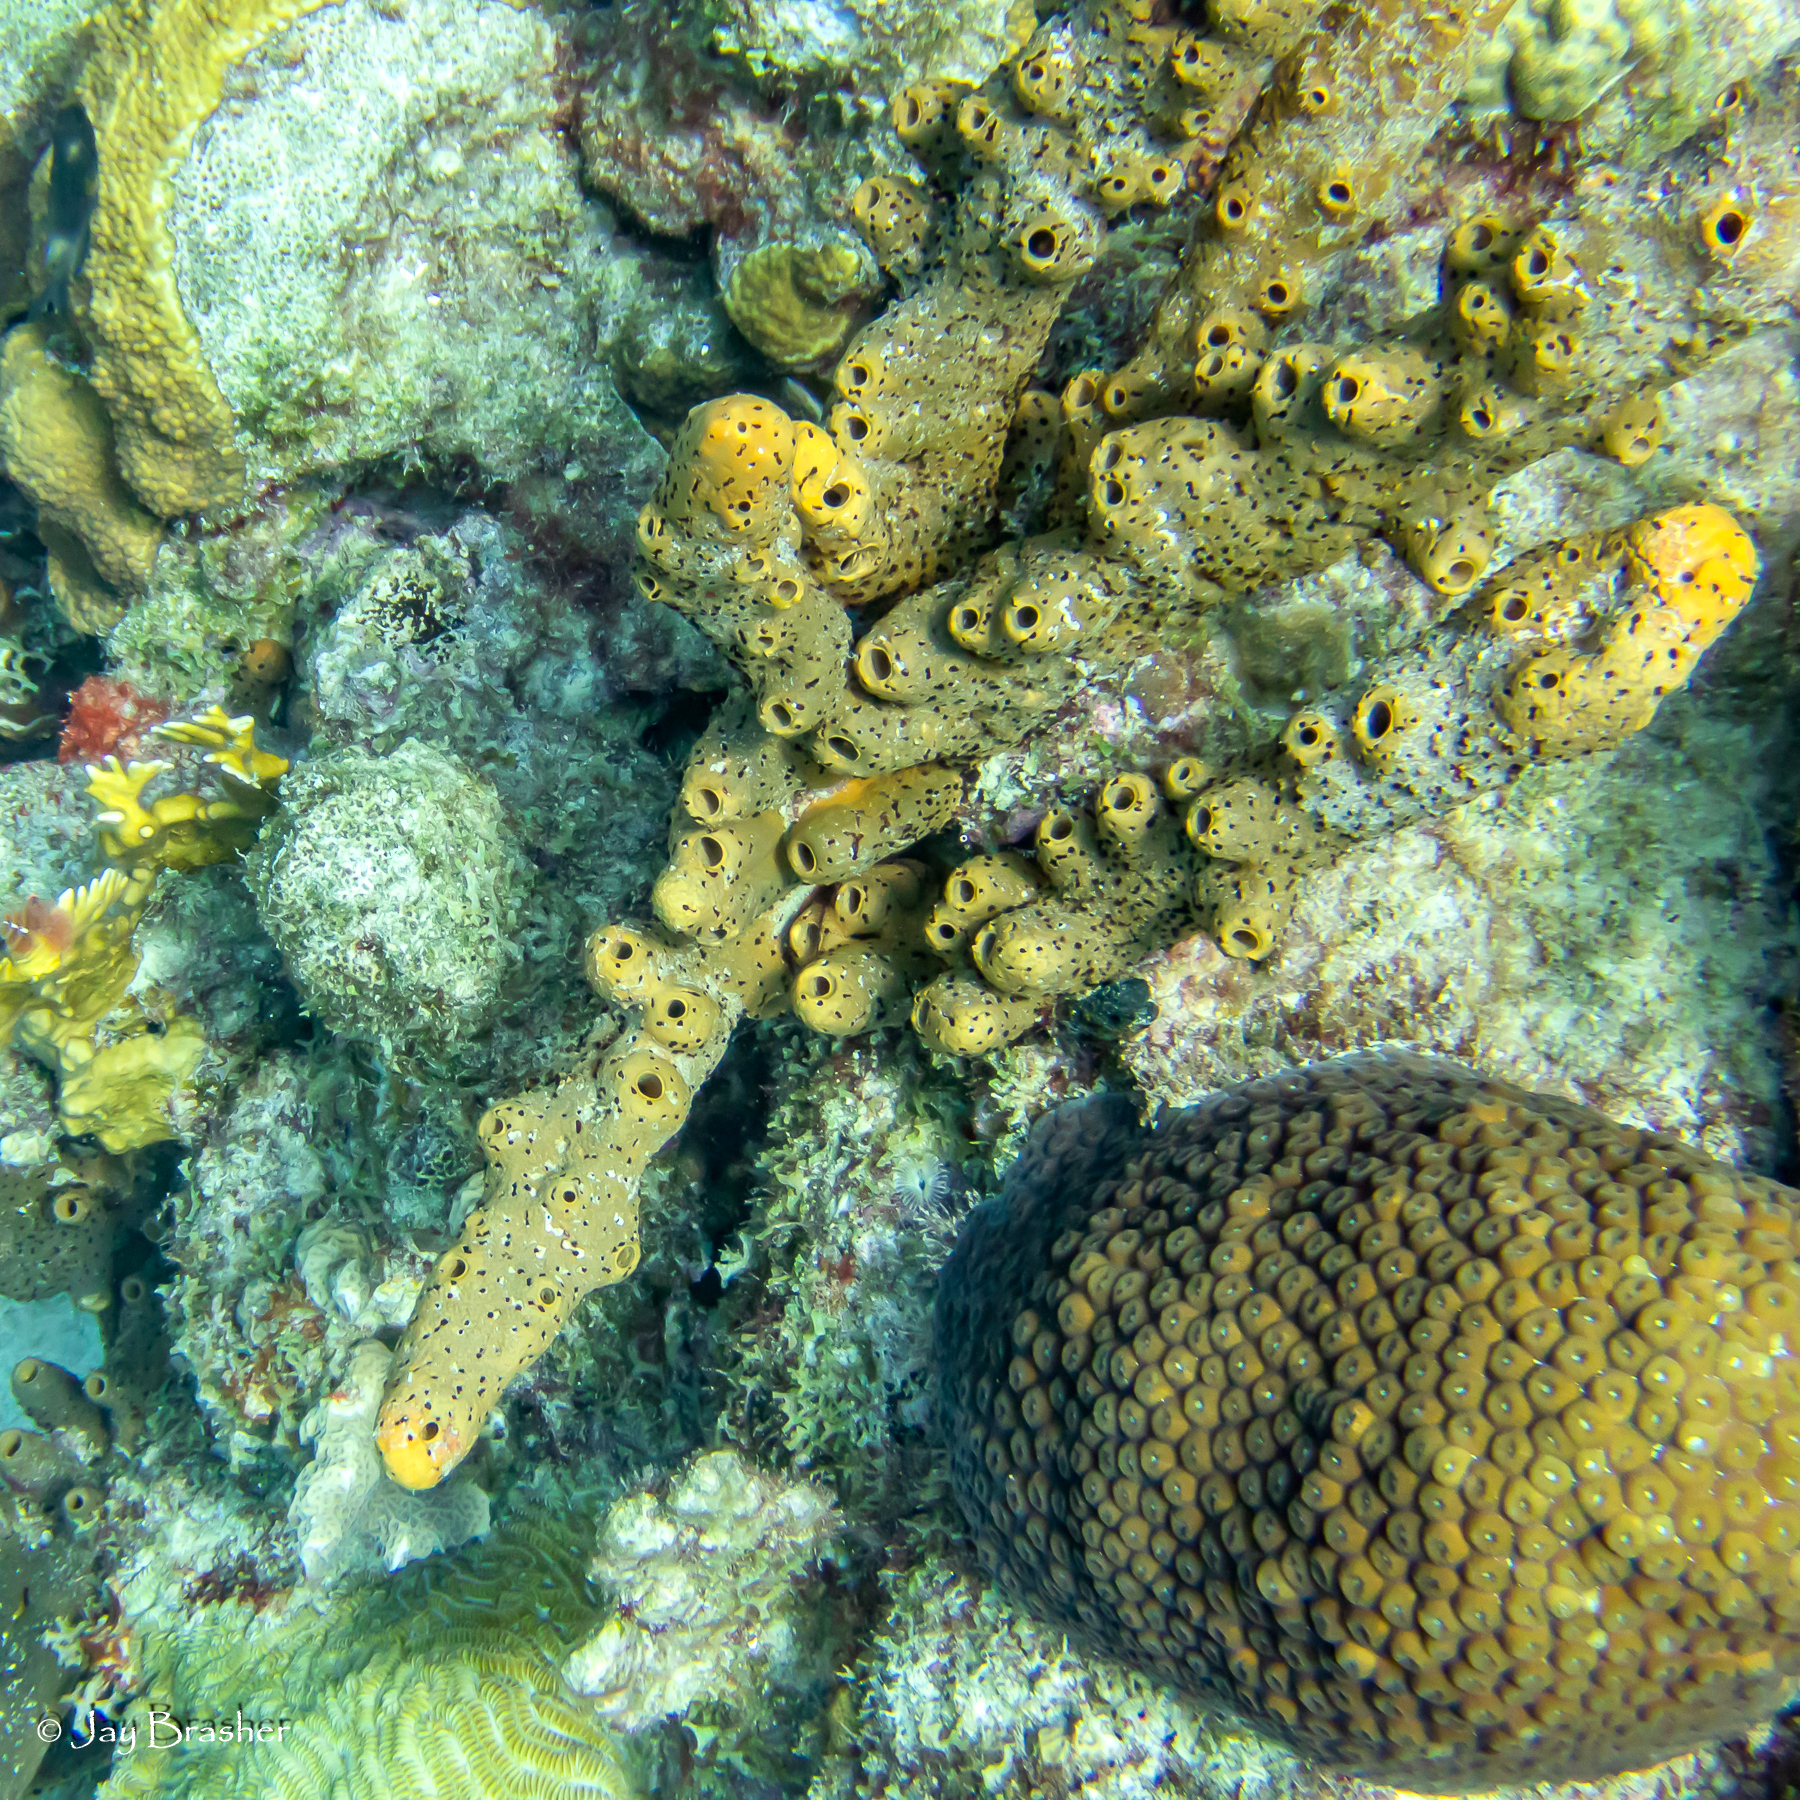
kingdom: Animalia
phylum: Porifera
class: Demospongiae
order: Agelasida
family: Agelasidae
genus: Agelas
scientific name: Agelas conifera
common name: Brown tube sponge
